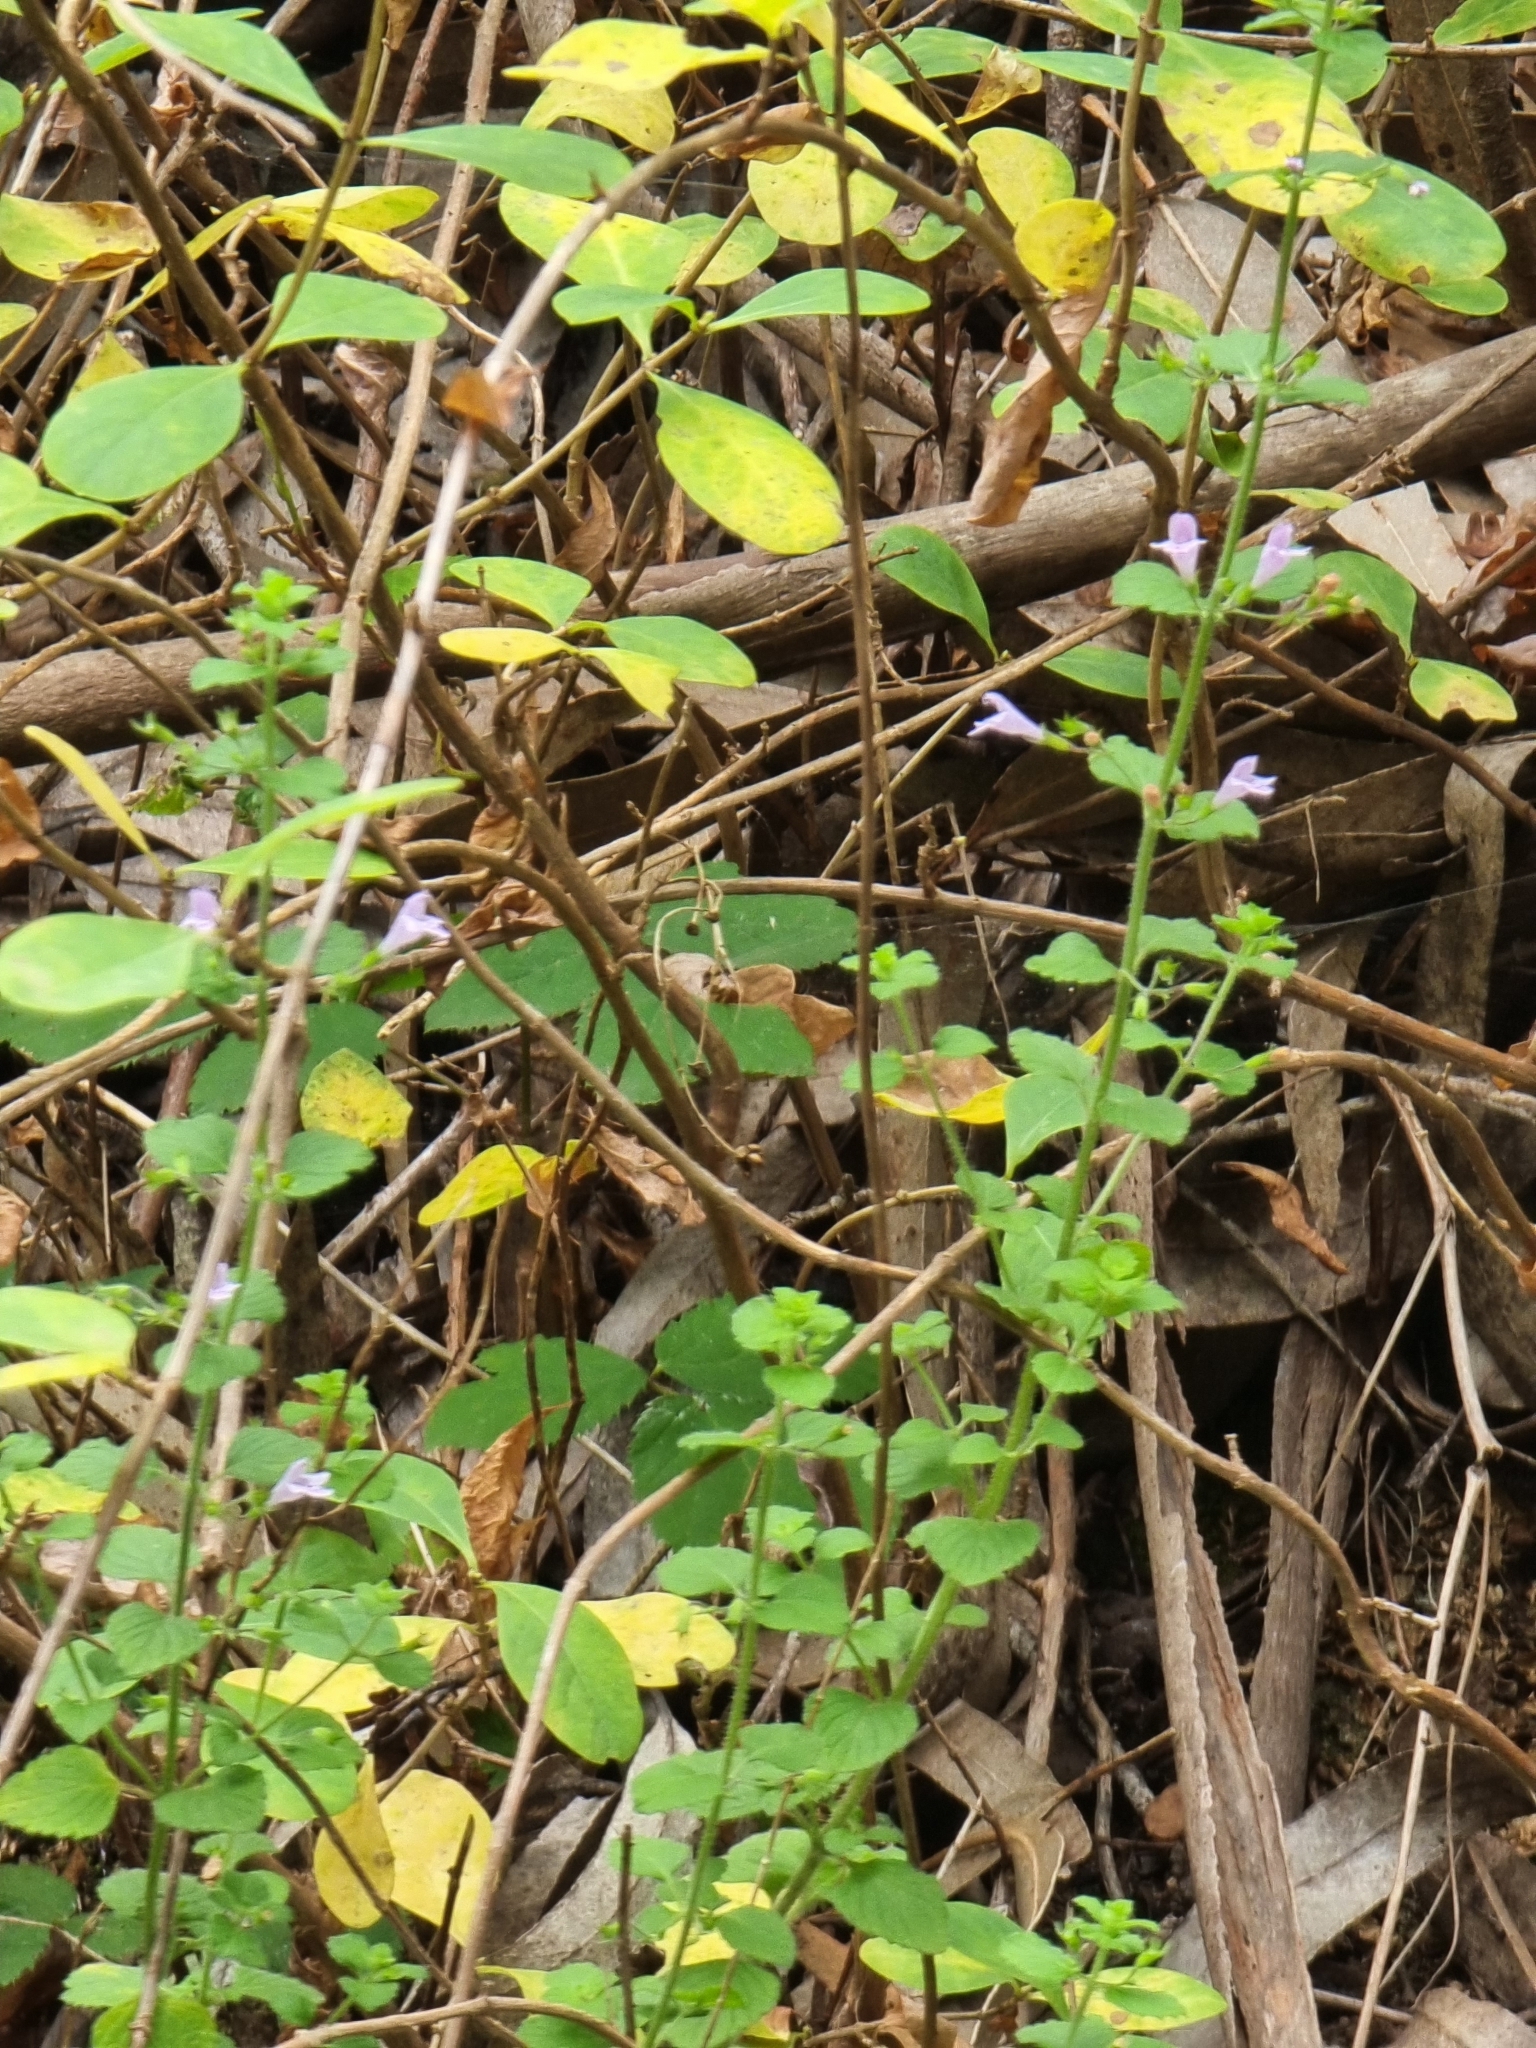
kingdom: Plantae
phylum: Tracheophyta
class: Magnoliopsida
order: Lamiales
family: Lamiaceae
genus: Clinopodium
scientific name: Clinopodium menthifolium
